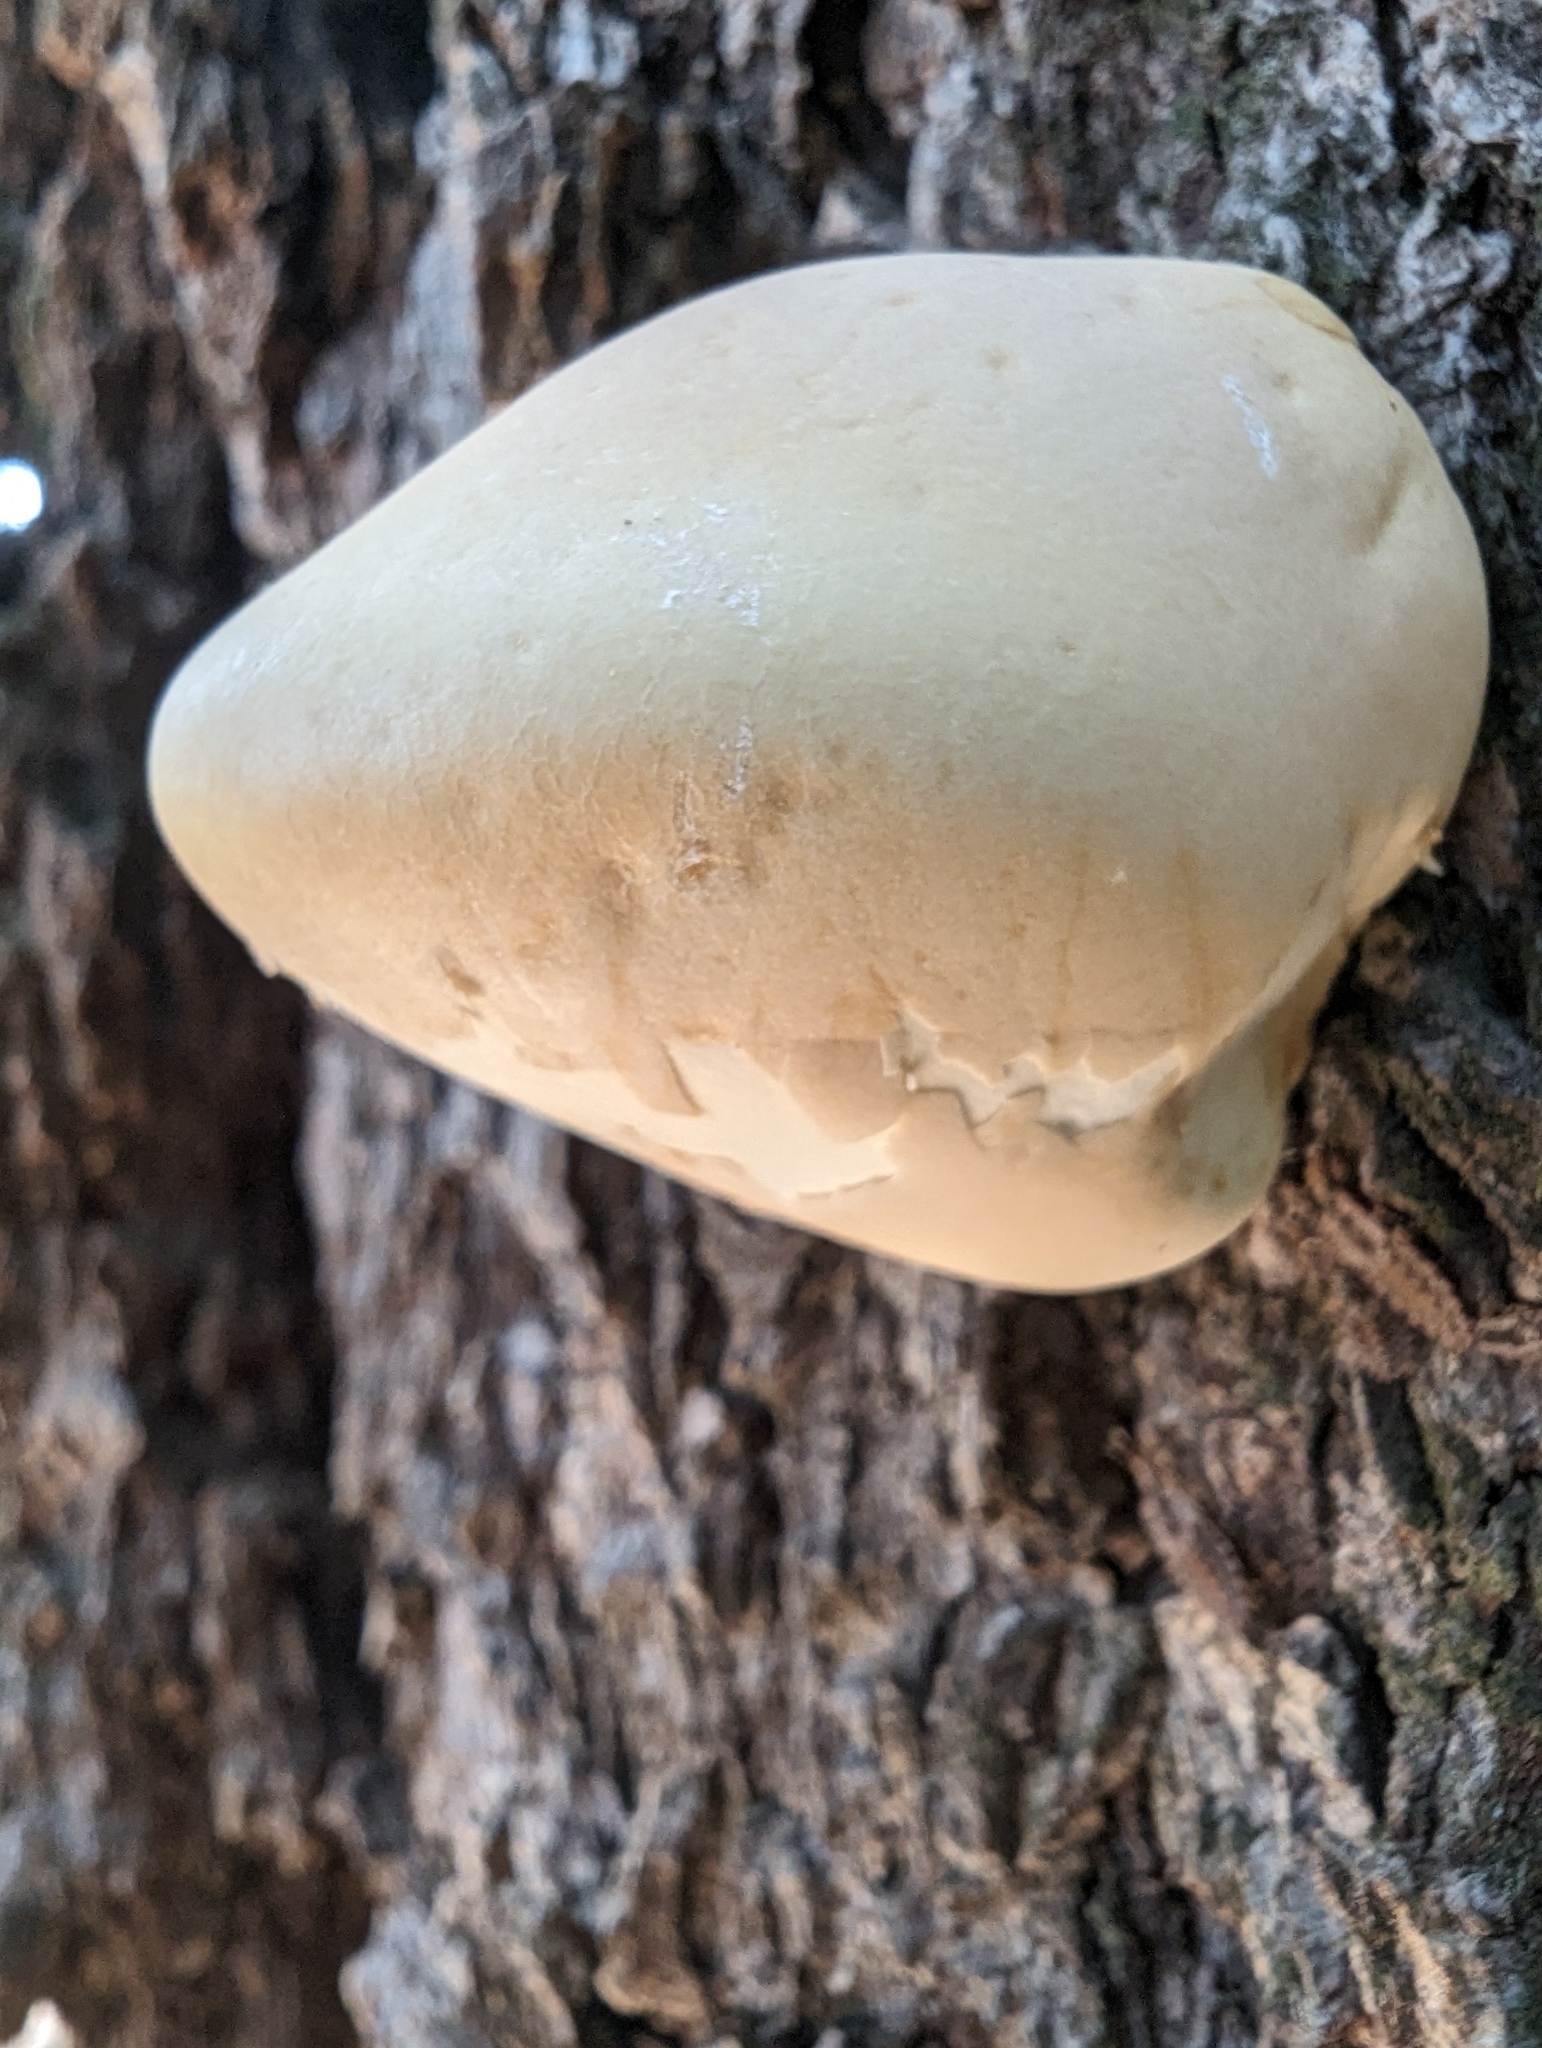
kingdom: Fungi
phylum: Basidiomycota
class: Agaricomycetes
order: Polyporales
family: Polyporaceae
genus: Cryptoporus
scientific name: Cryptoporus volvatus
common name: Veiled polypore
